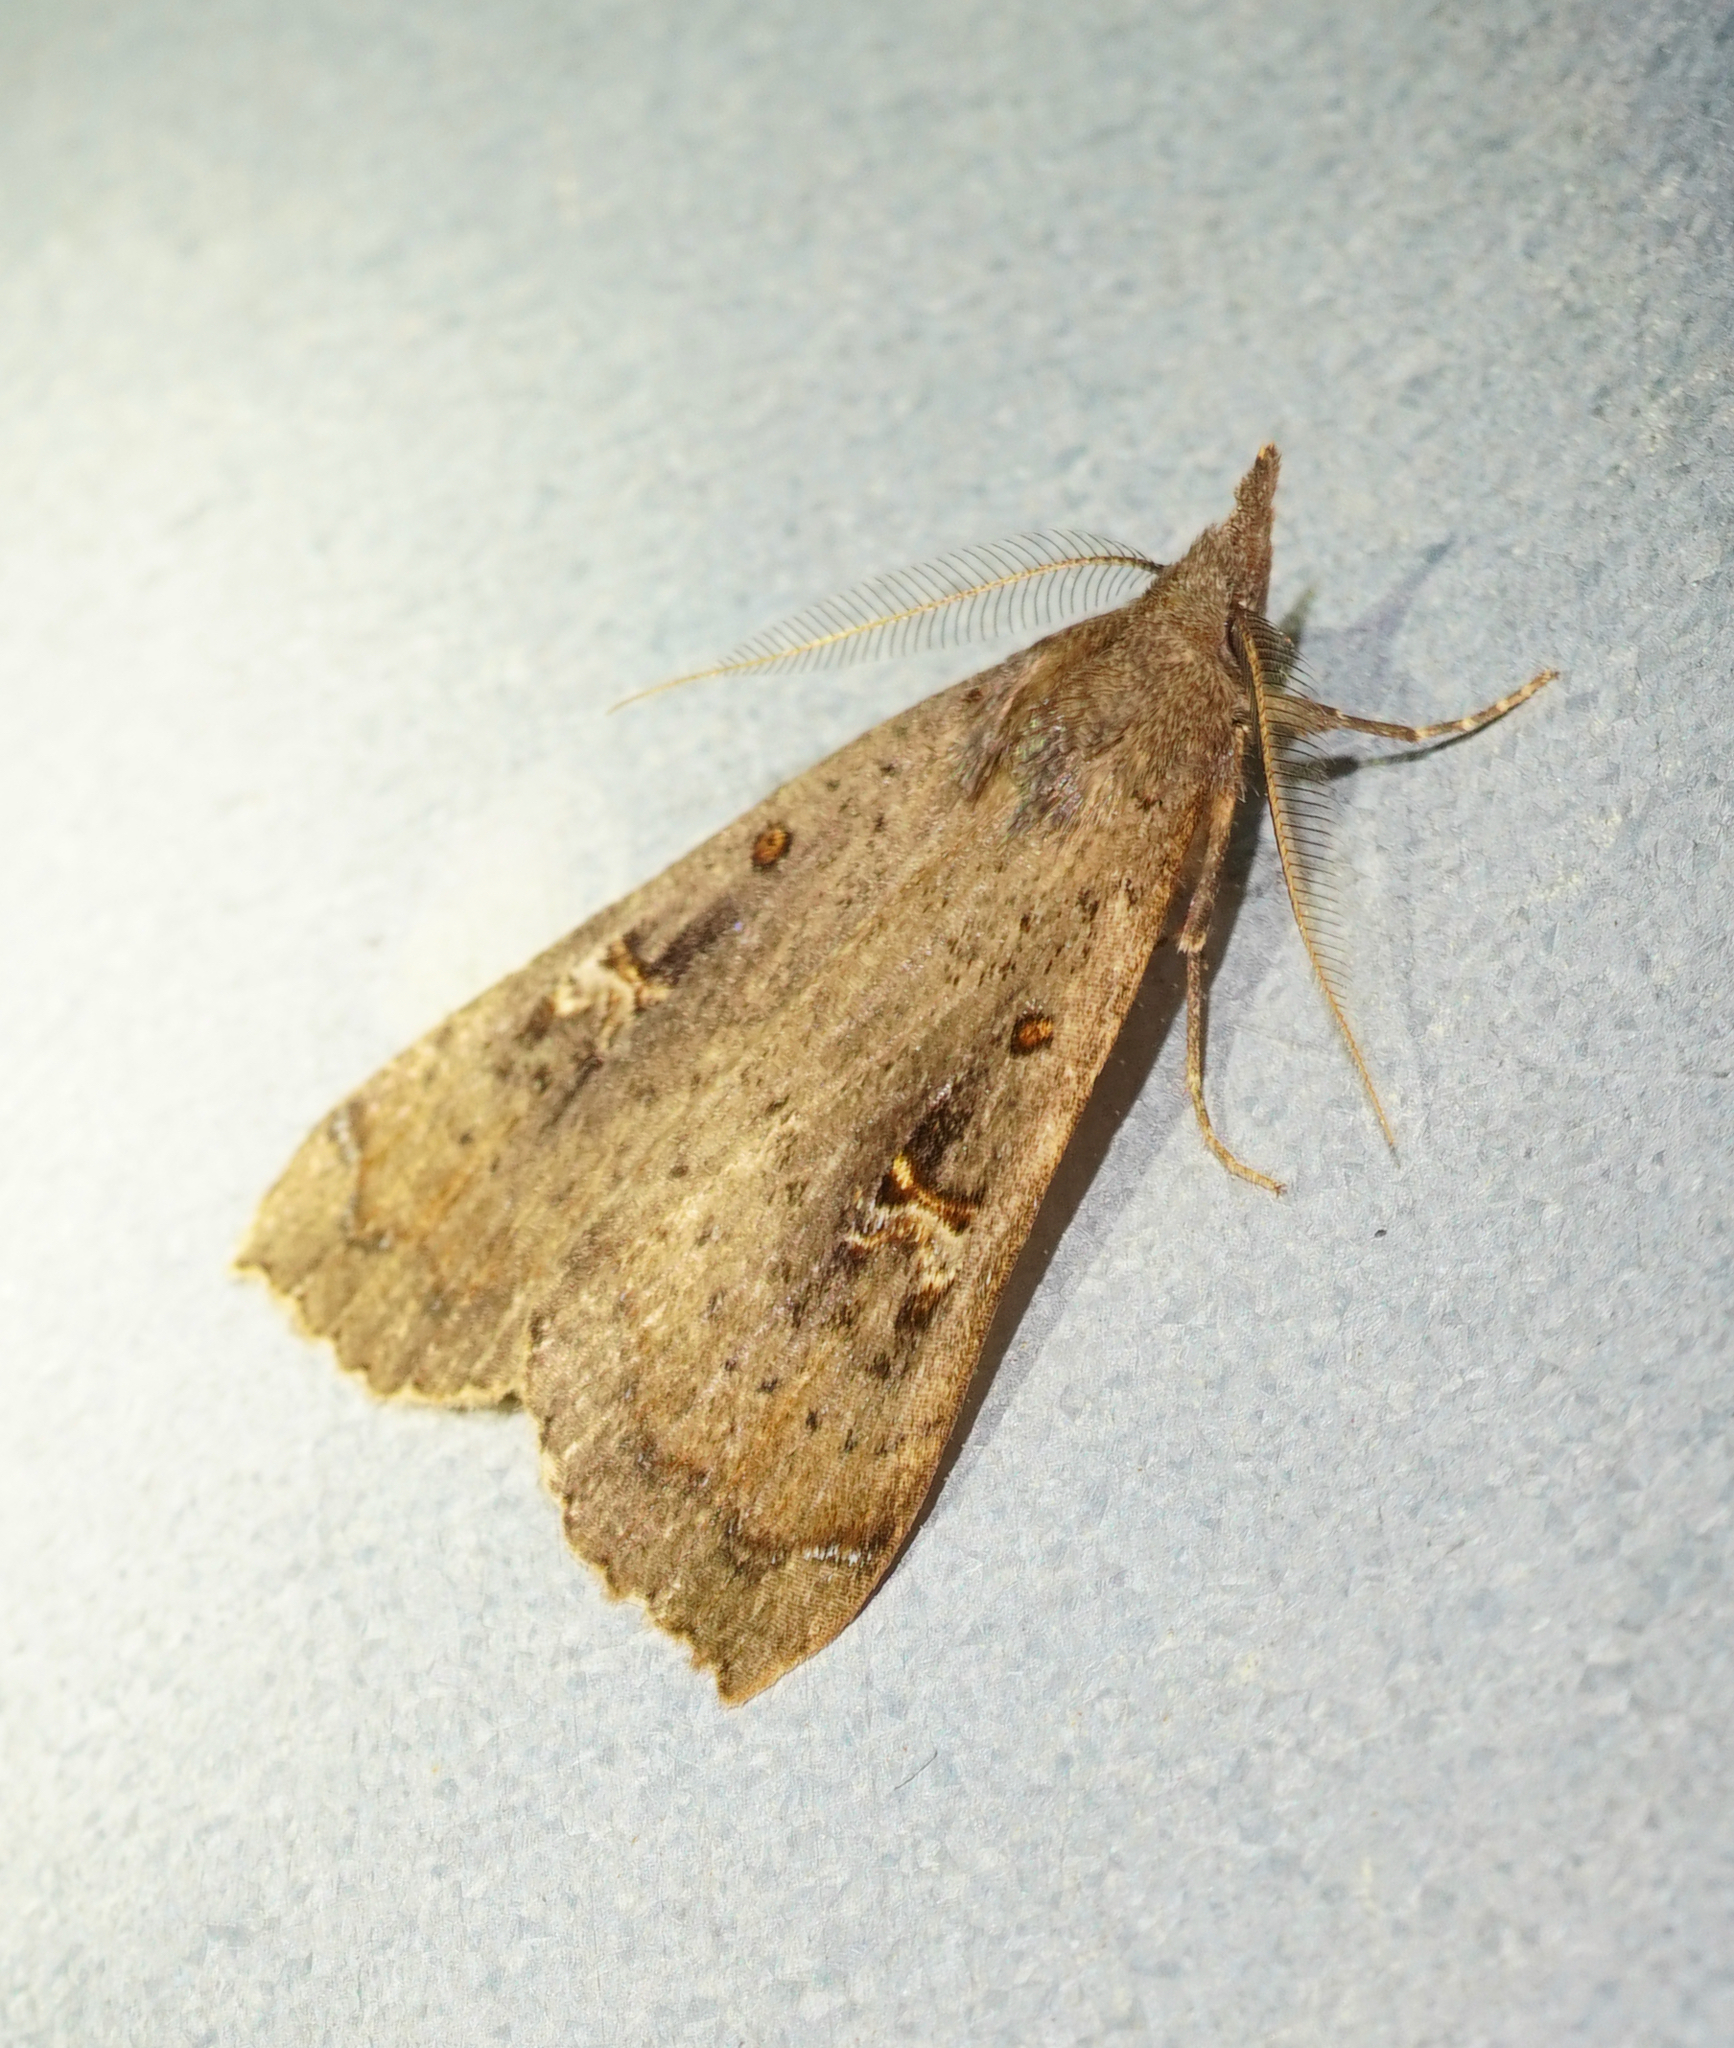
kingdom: Animalia
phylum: Arthropoda
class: Insecta
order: Lepidoptera
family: Erebidae
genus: Rhapsa
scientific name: Rhapsa scotosialis
